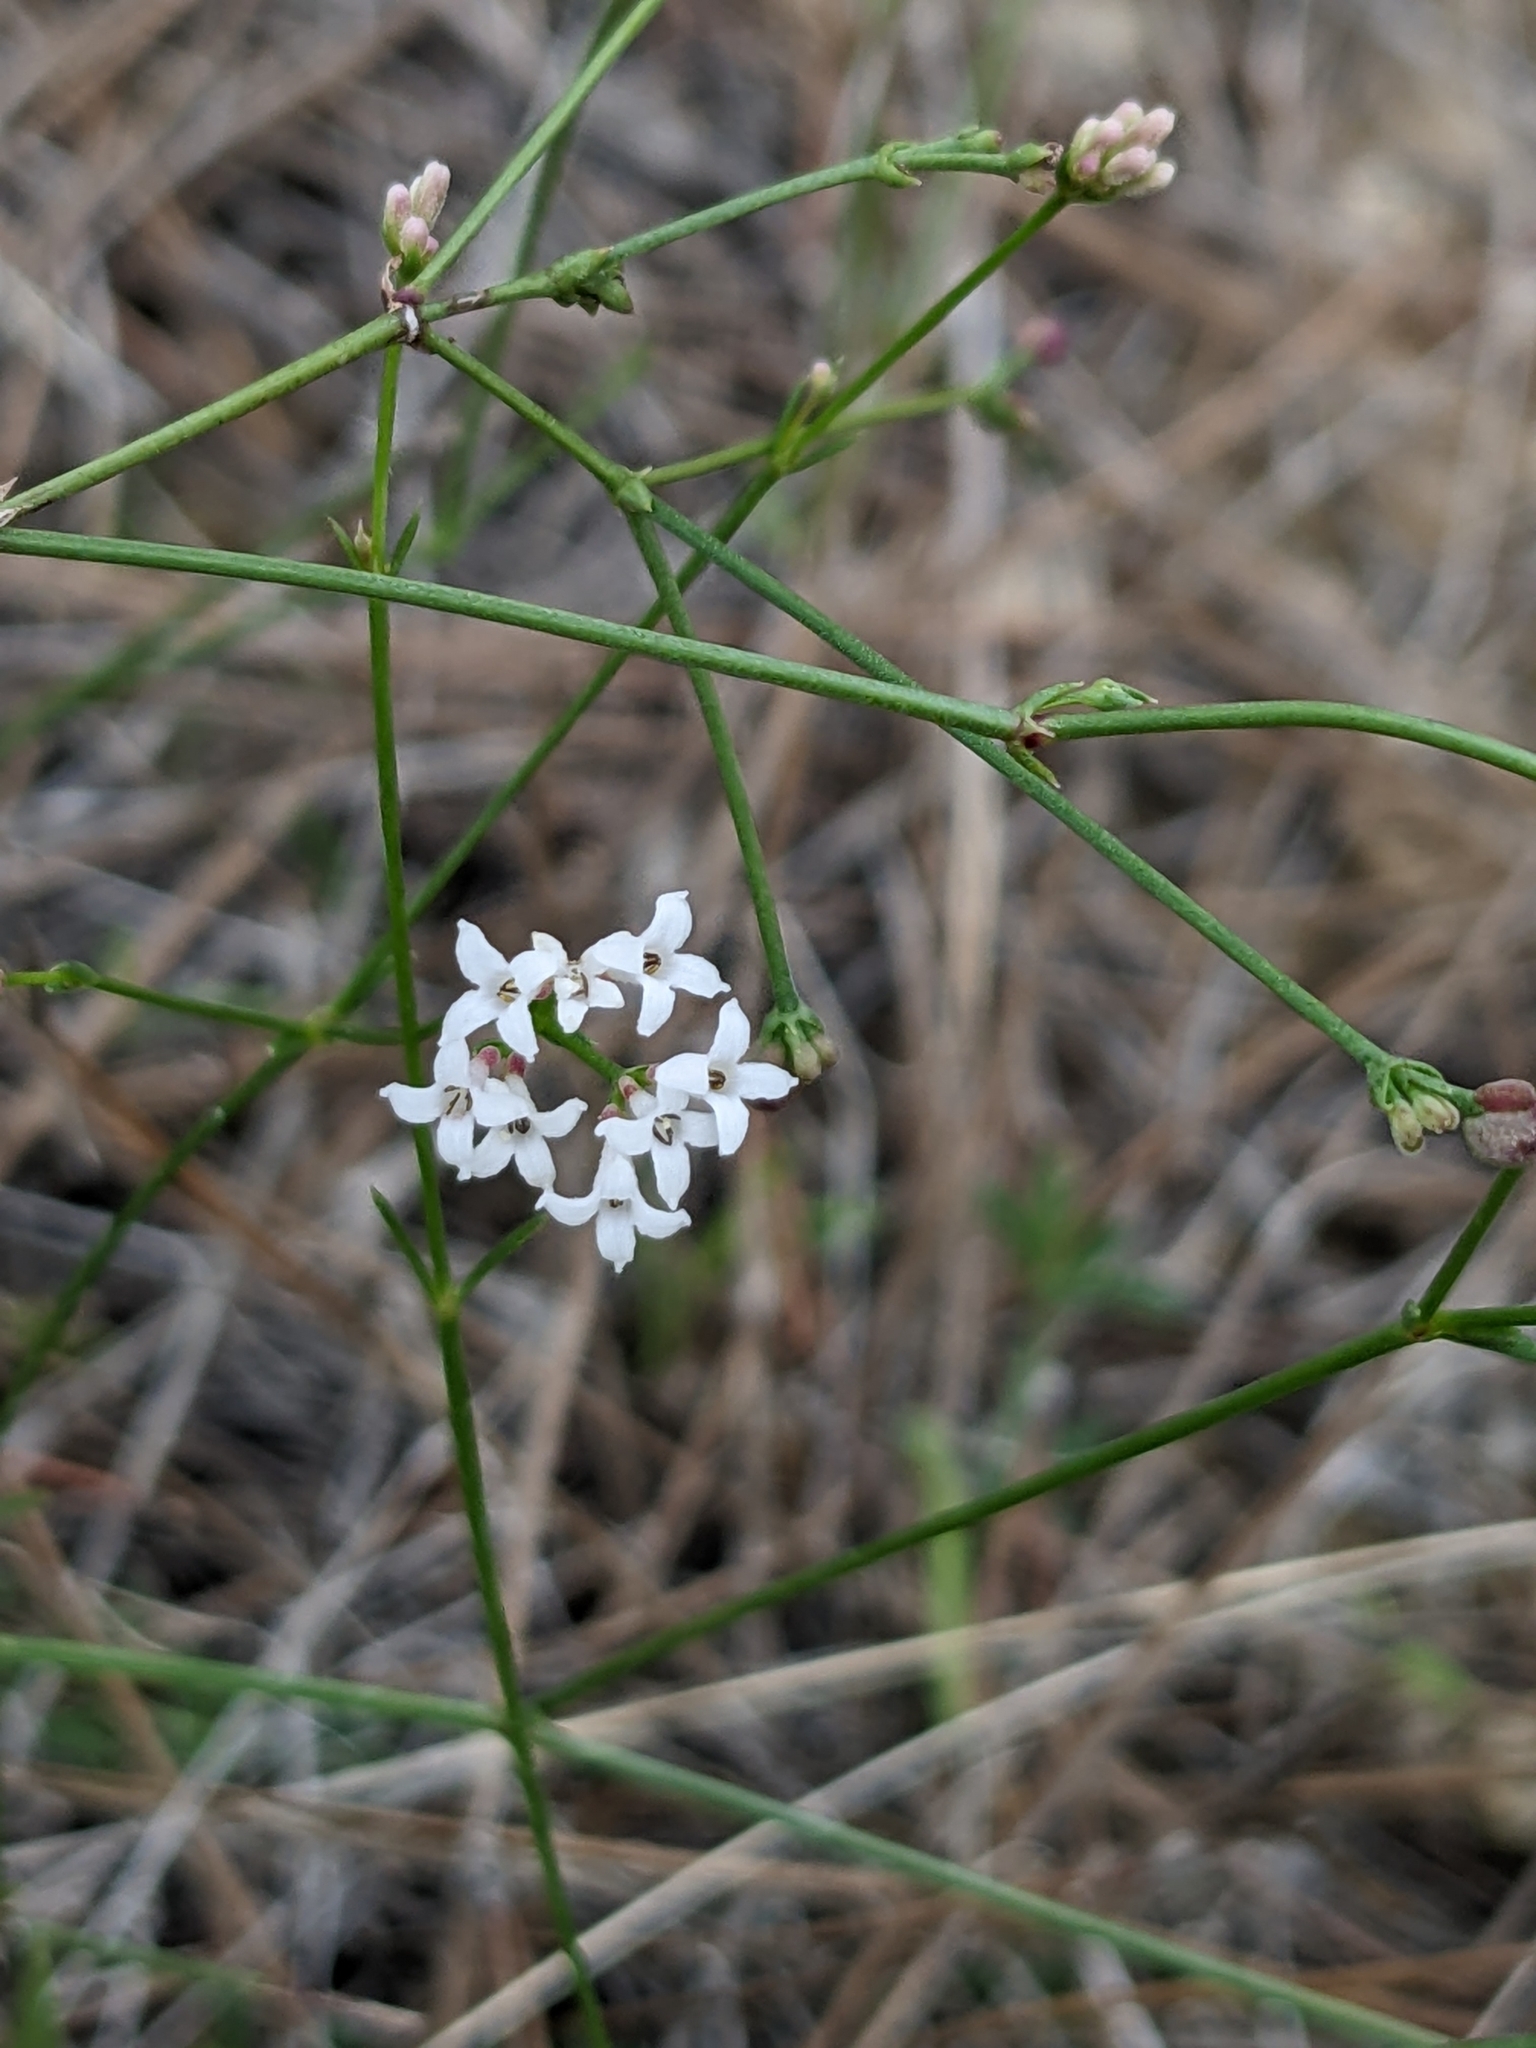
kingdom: Plantae
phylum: Tracheophyta
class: Magnoliopsida
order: Gentianales
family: Rubiaceae
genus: Cynanchica
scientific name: Cynanchica pyrenaica
